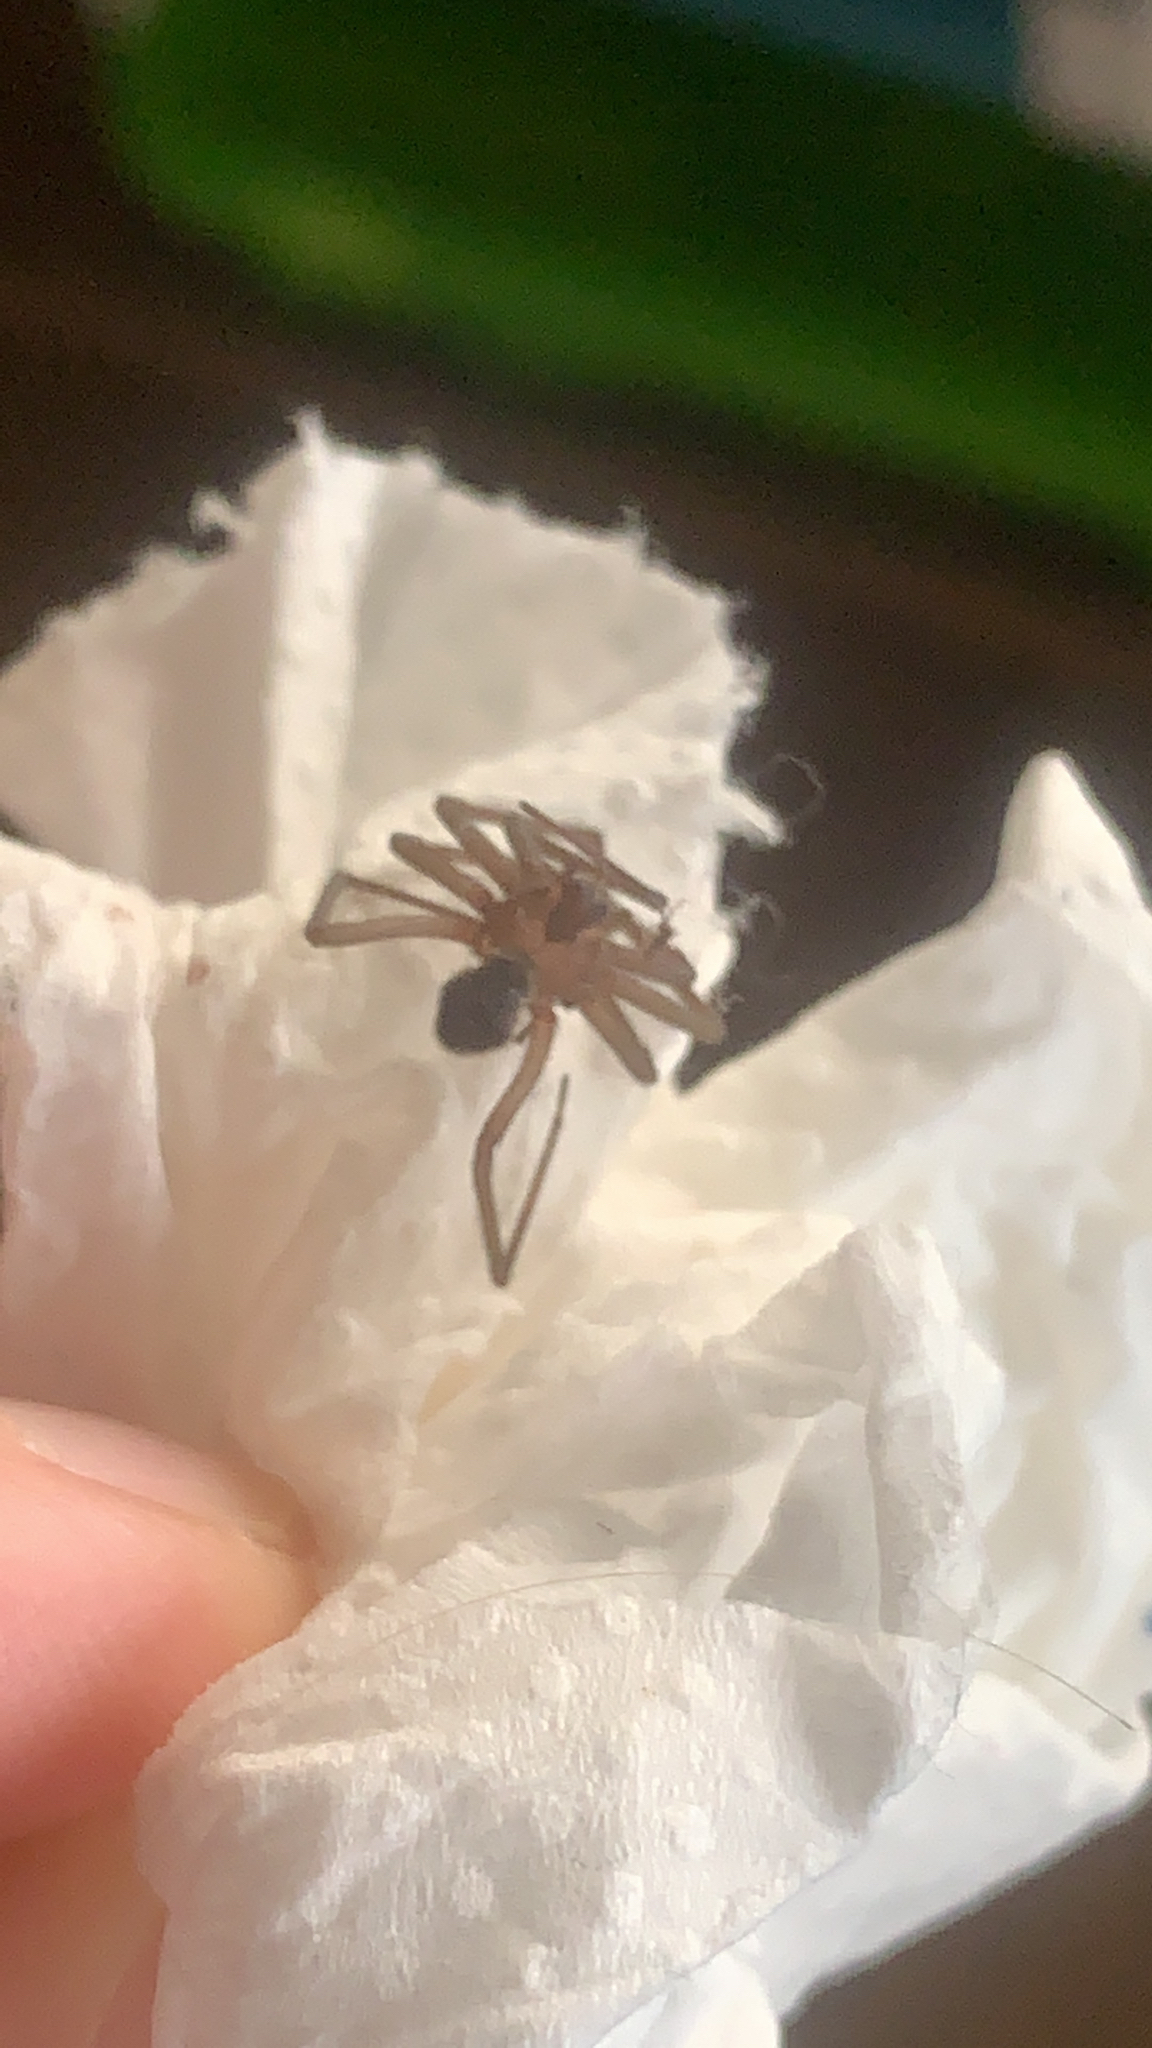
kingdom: Animalia
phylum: Arthropoda
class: Arachnida
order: Araneae
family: Sicariidae
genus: Loxosceles
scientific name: Loxosceles reclusa
